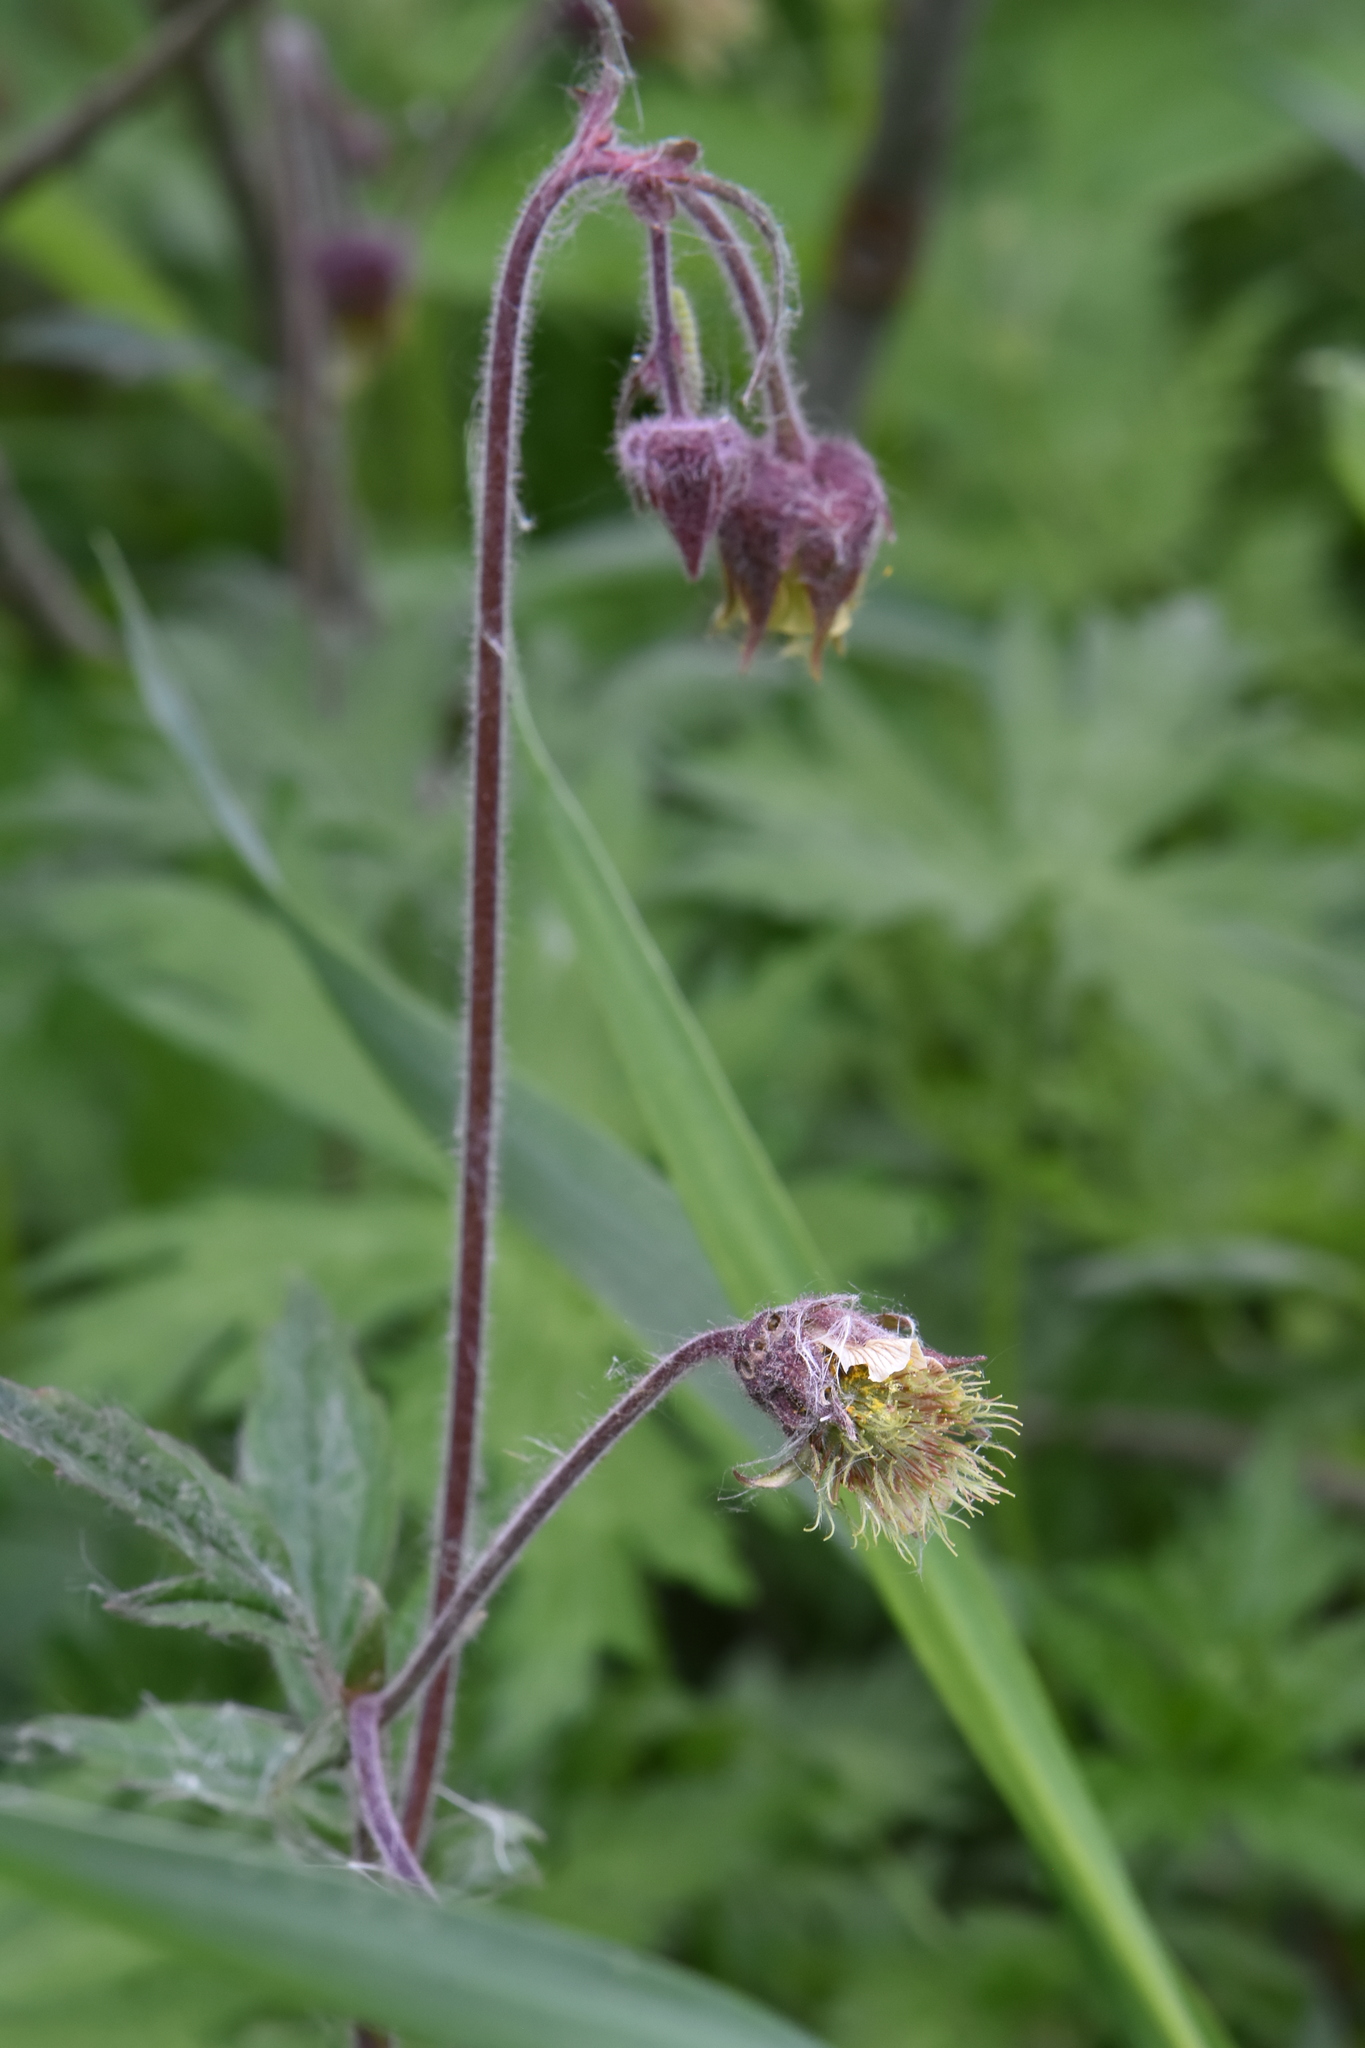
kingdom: Plantae
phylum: Tracheophyta
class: Magnoliopsida
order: Rosales
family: Rosaceae
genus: Geum
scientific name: Geum rivale
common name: Water avens
